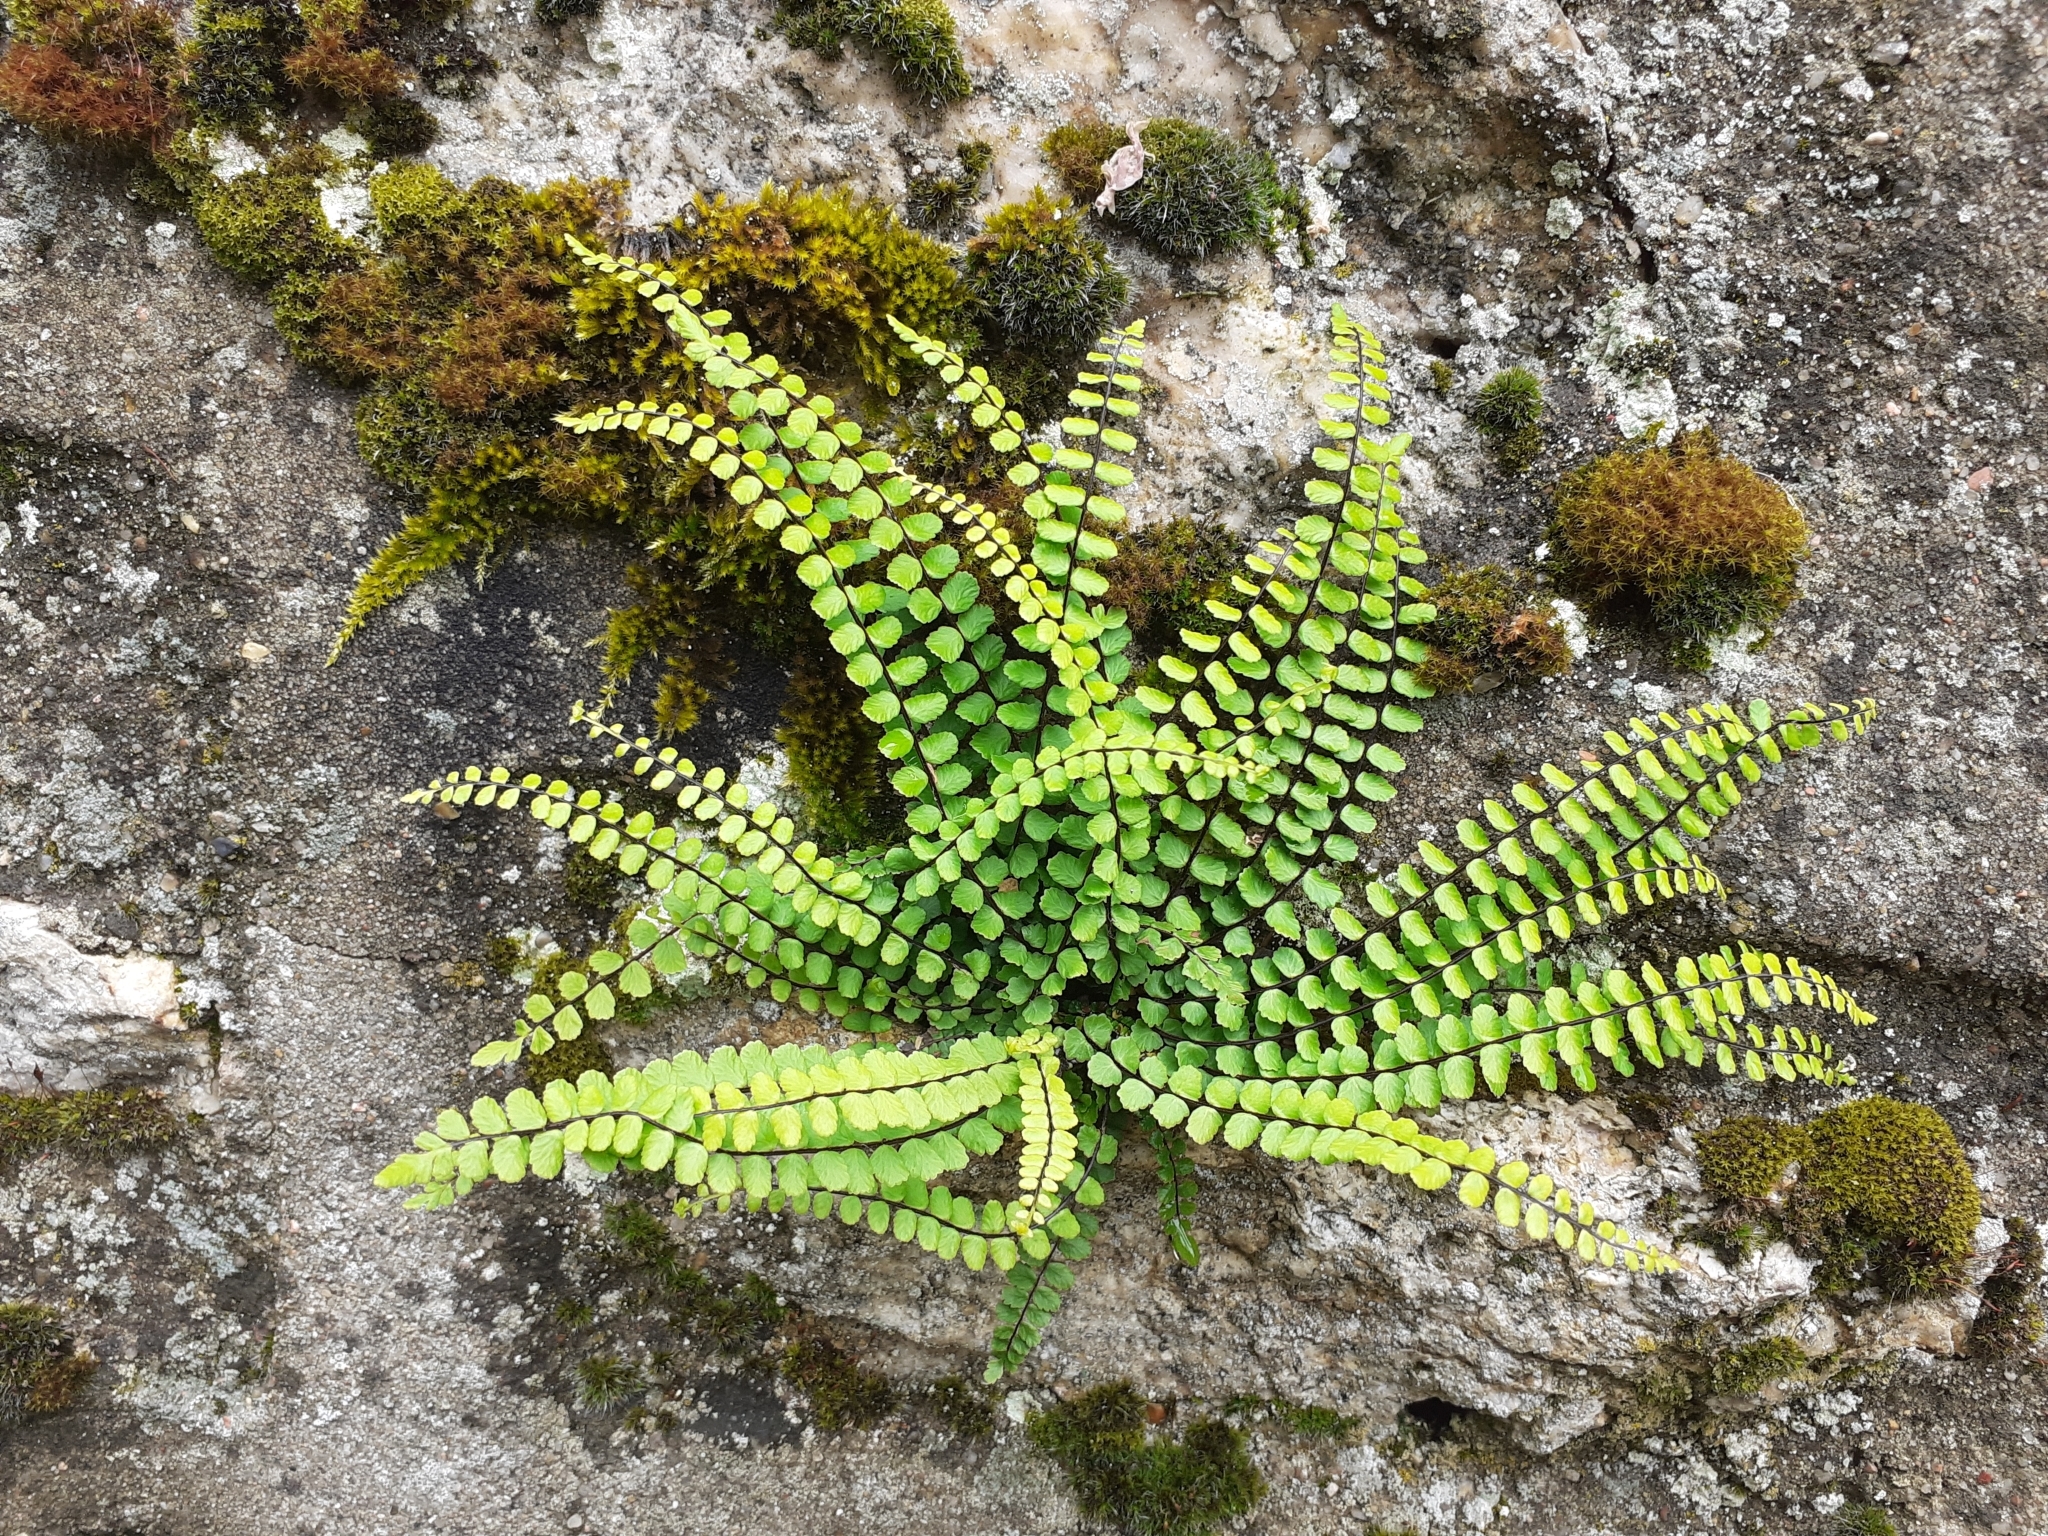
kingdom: Plantae
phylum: Tracheophyta
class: Polypodiopsida
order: Polypodiales
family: Aspleniaceae
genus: Asplenium
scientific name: Asplenium trichomanes
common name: Maidenhair spleenwort
